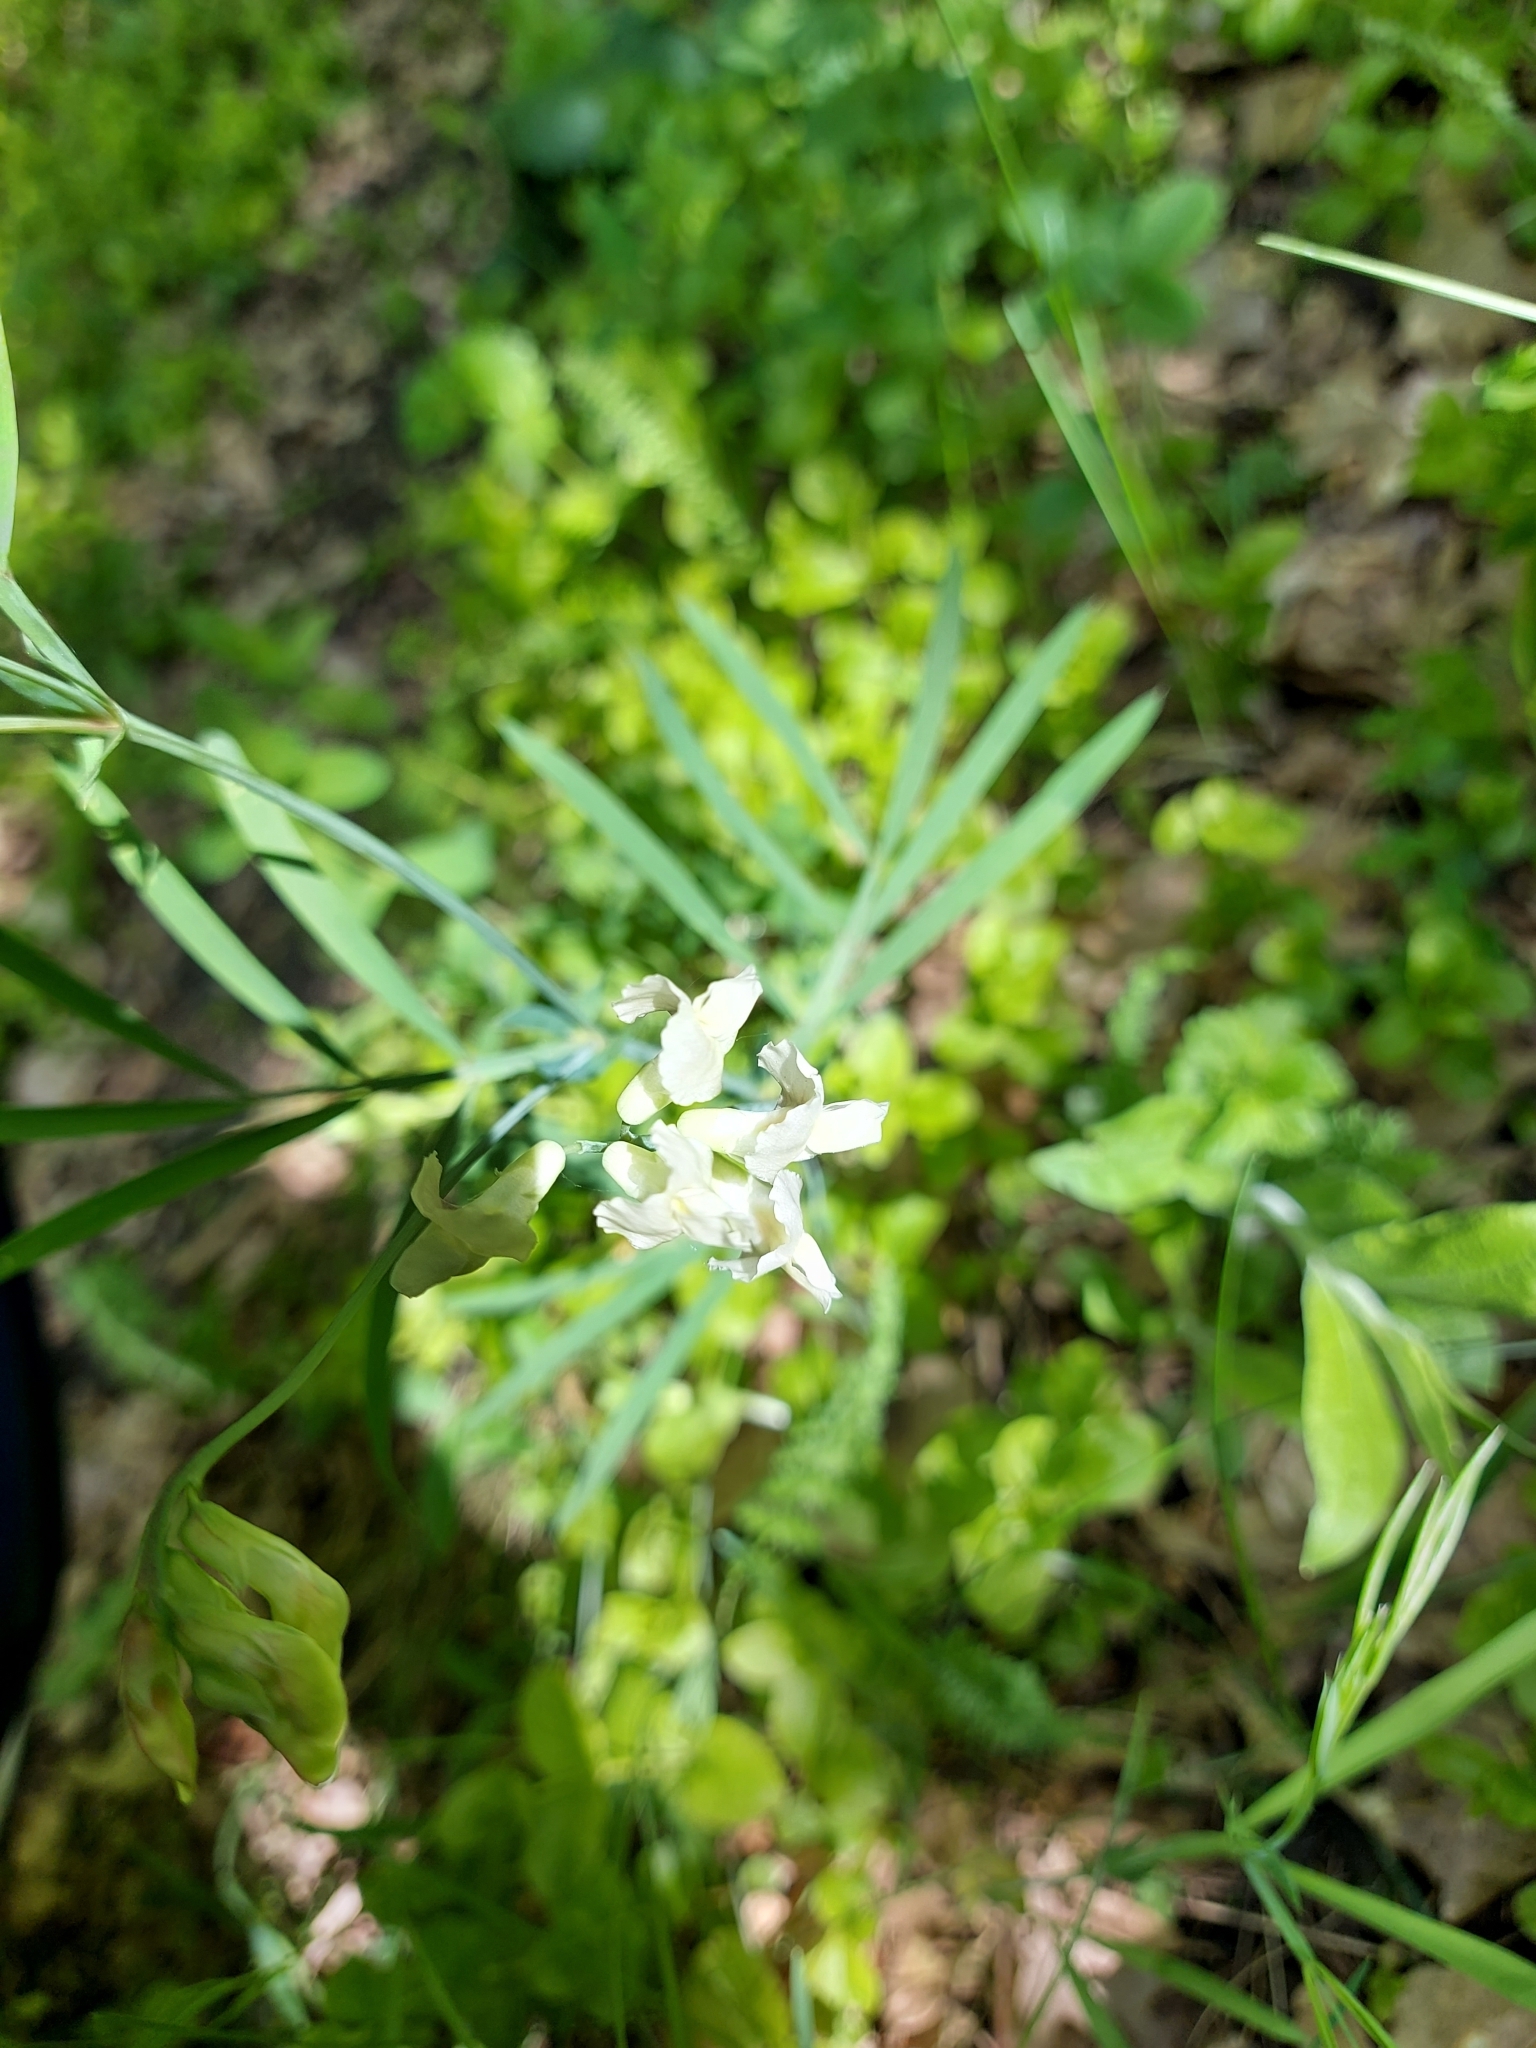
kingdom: Plantae
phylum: Tracheophyta
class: Magnoliopsida
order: Fabales
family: Fabaceae
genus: Lathyrus
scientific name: Lathyrus pannonicus
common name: Pea
